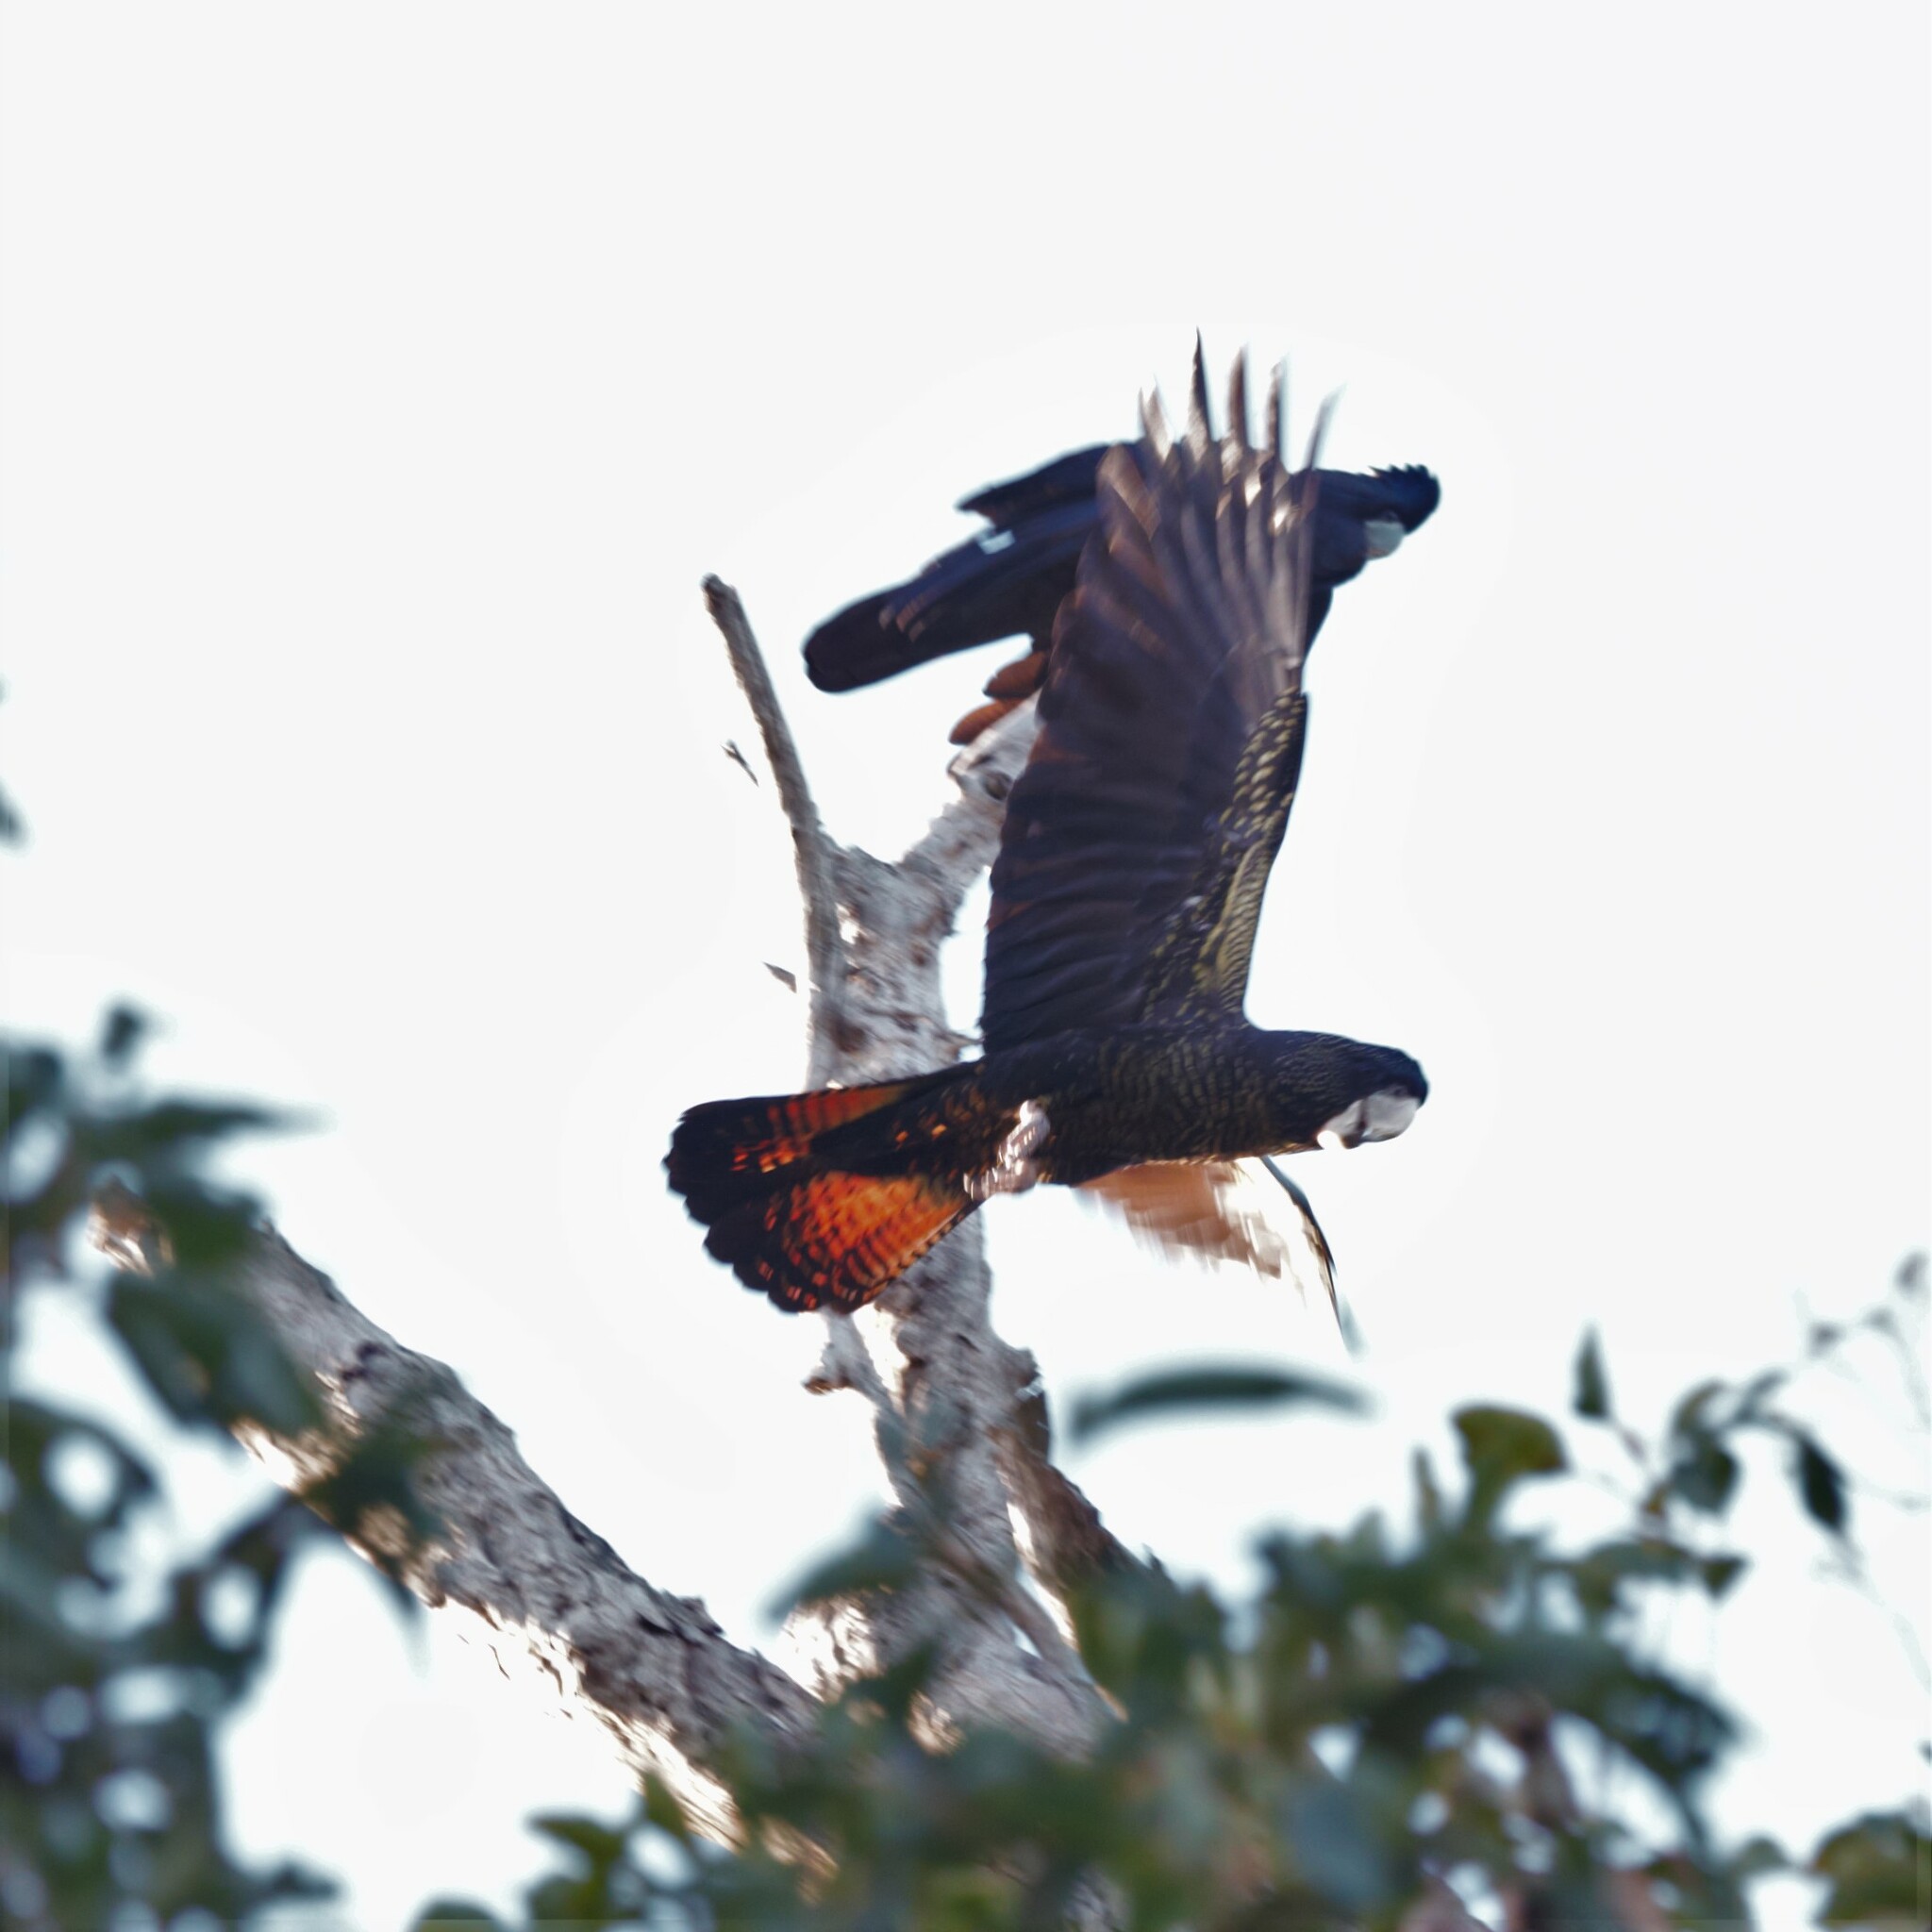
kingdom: Animalia
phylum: Chordata
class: Aves
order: Psittaciformes
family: Psittacidae
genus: Calyptorhynchus
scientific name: Calyptorhynchus banksii
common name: Red-tailed black cockatoo
